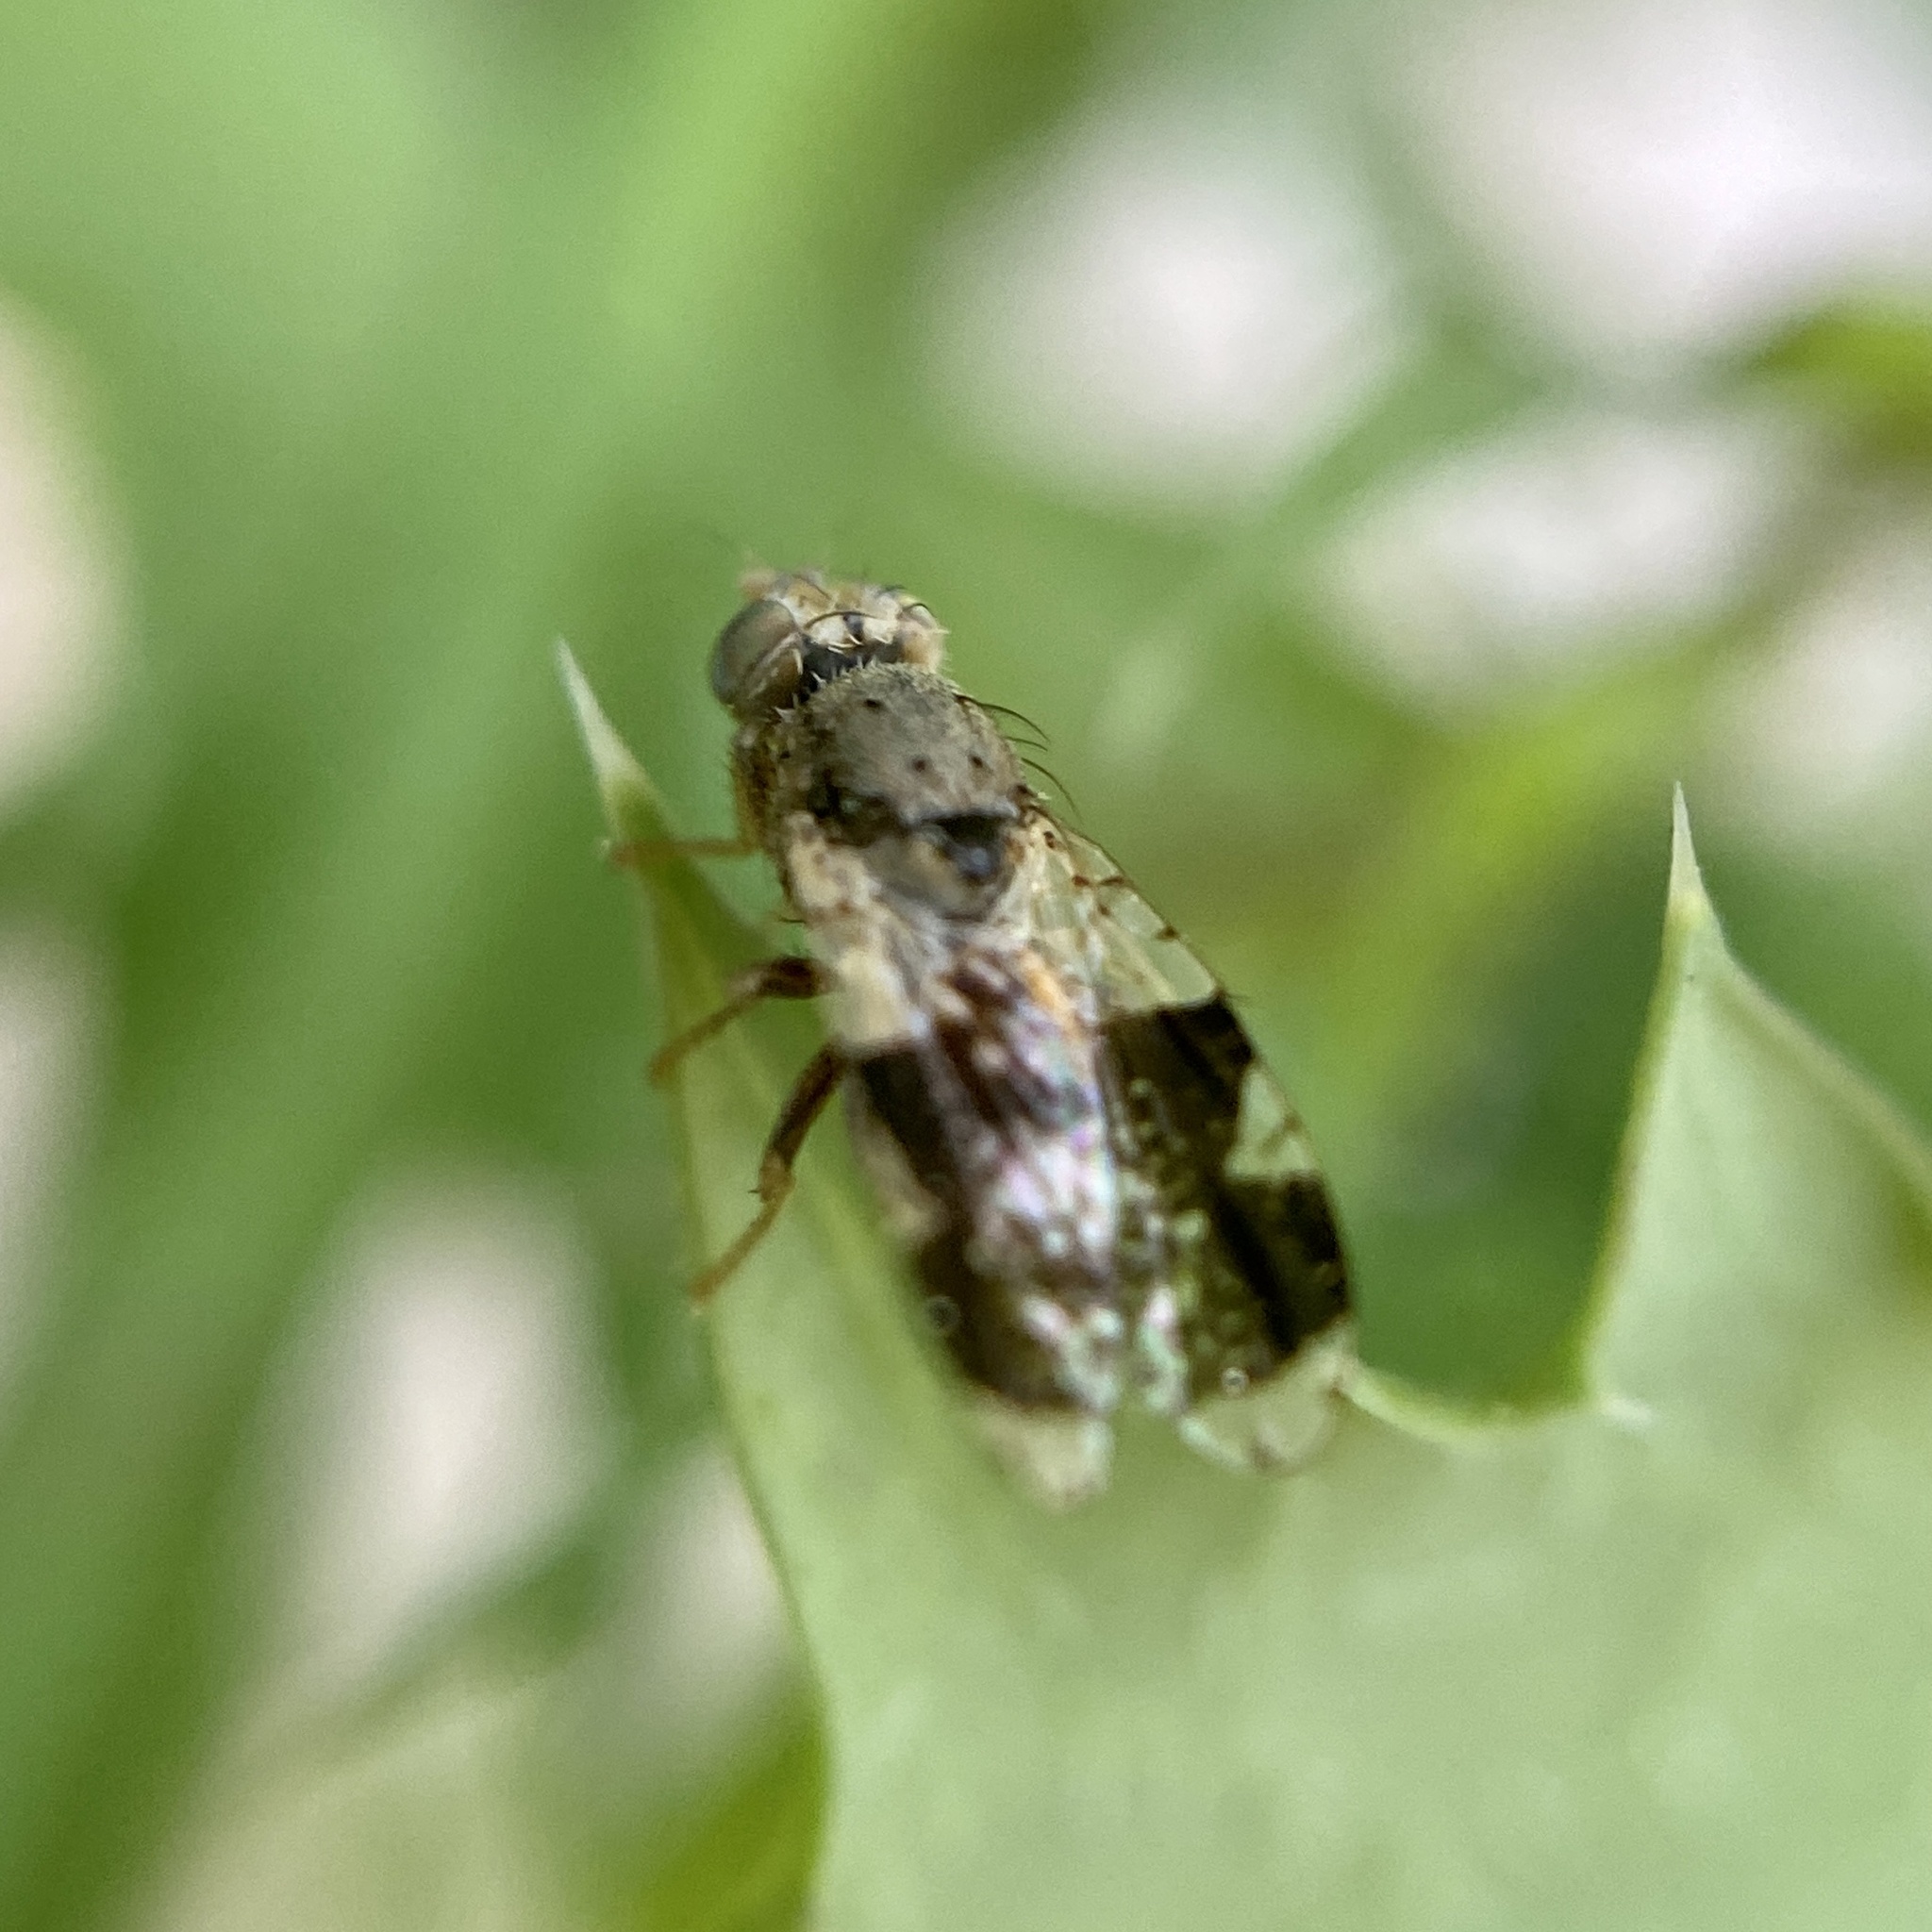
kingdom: Animalia
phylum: Arthropoda
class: Insecta
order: Diptera
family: Tephritidae
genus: Tephritis
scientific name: Tephritis formosa
